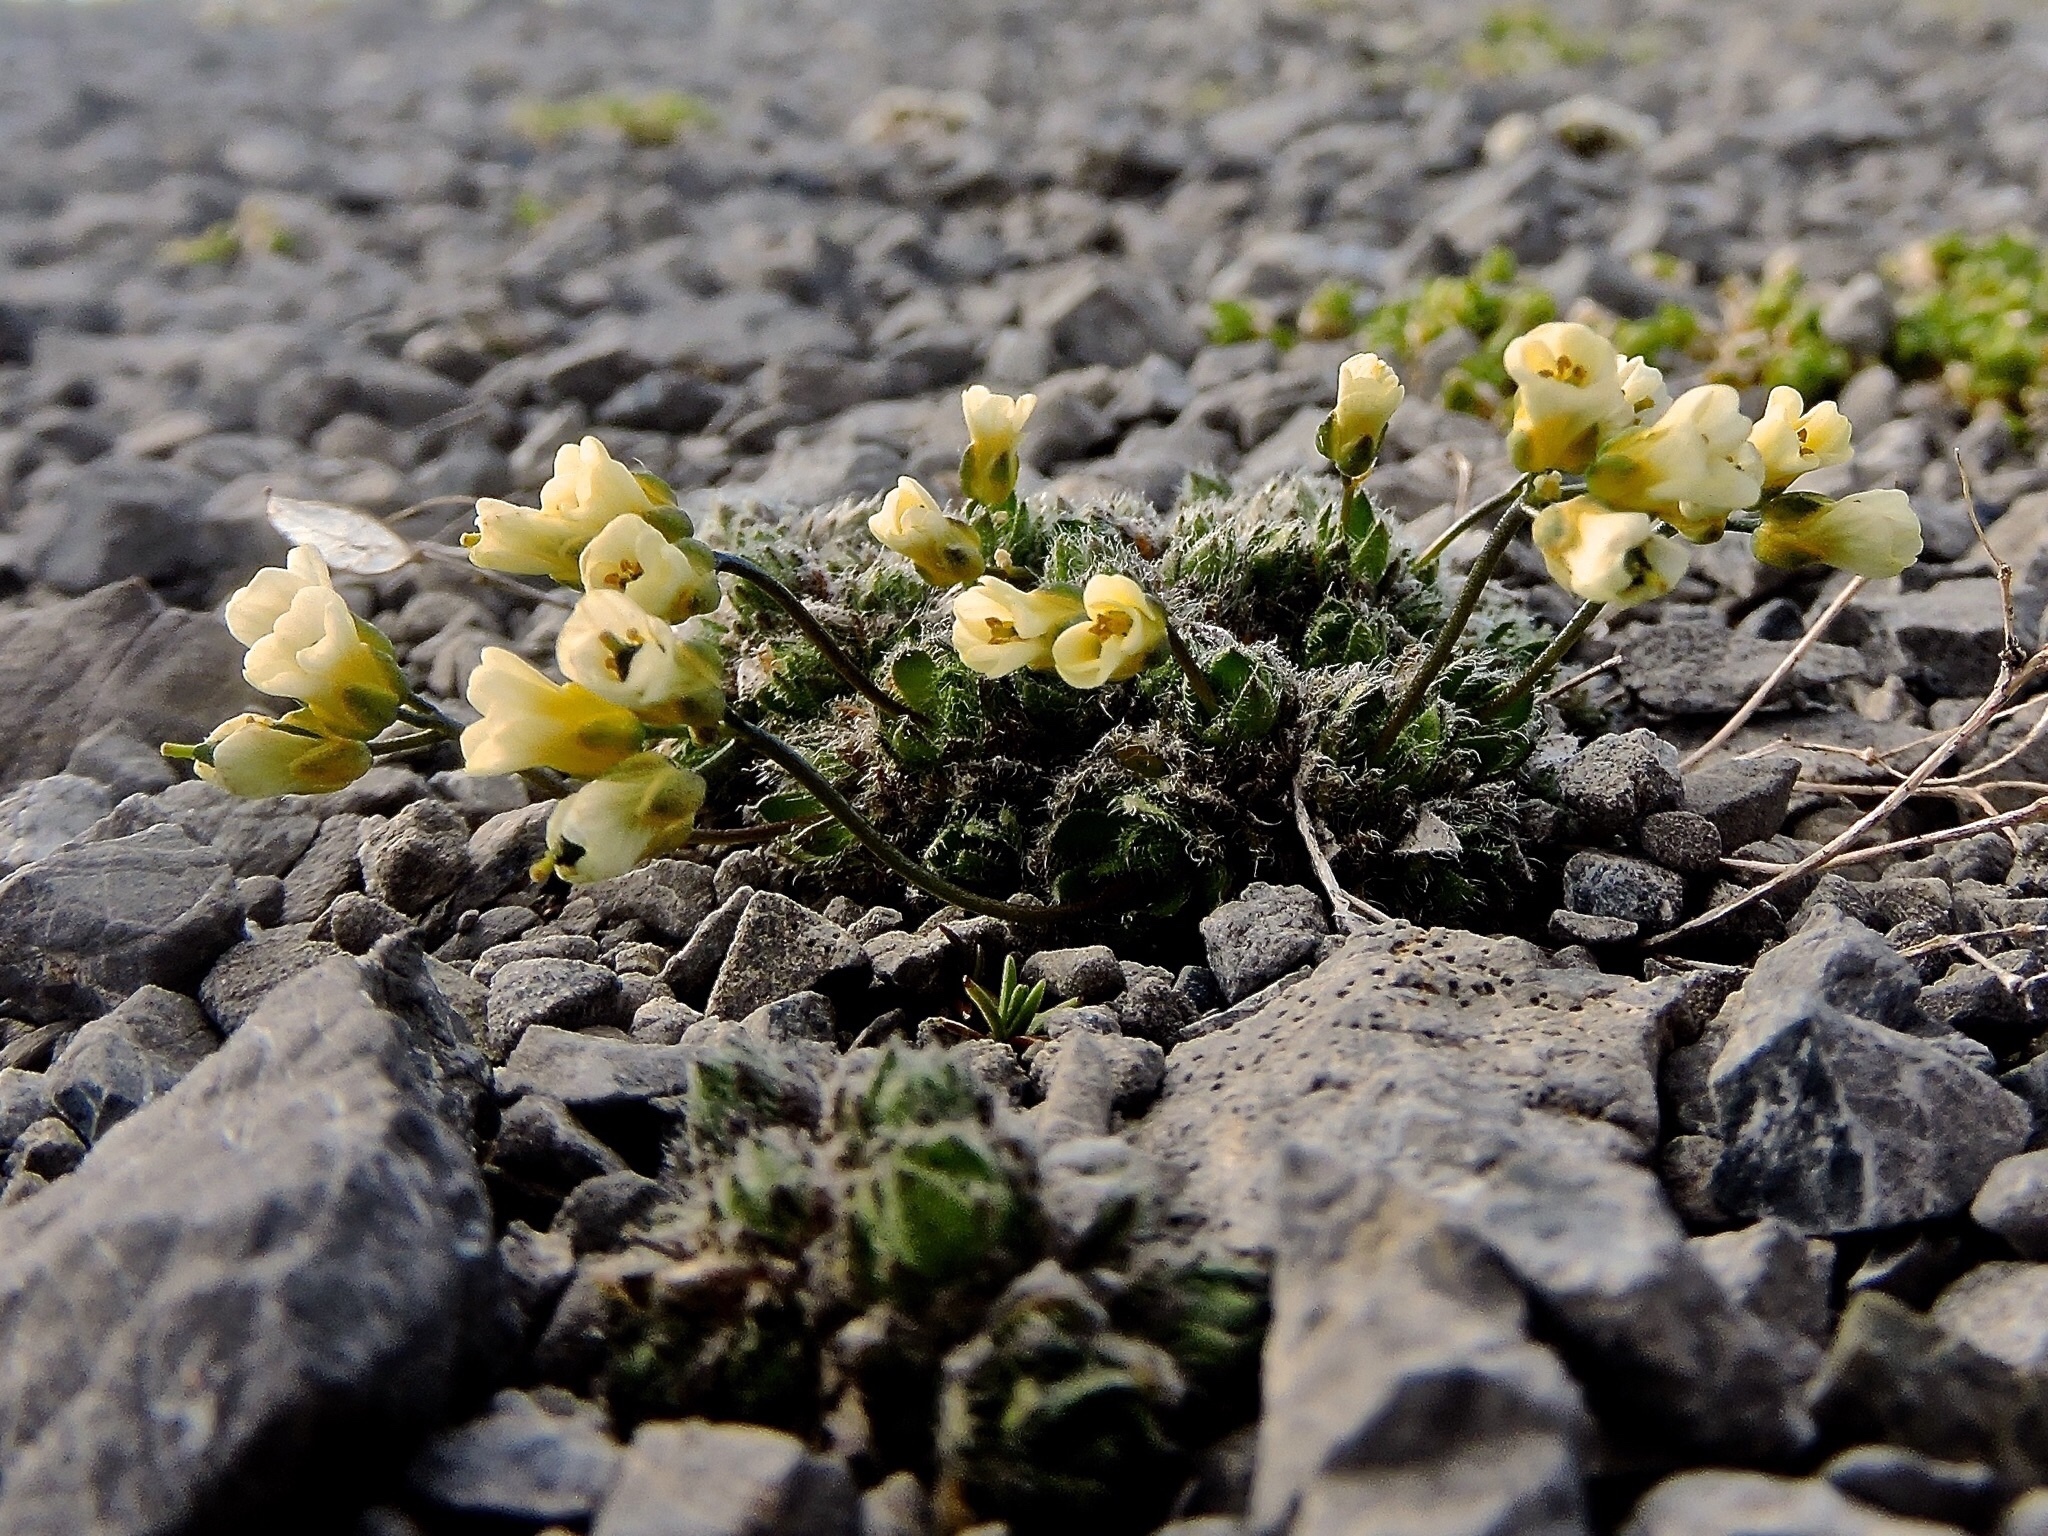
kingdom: Plantae
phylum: Tracheophyta
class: Magnoliopsida
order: Brassicales
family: Brassicaceae
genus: Draba
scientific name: Draba ladina
